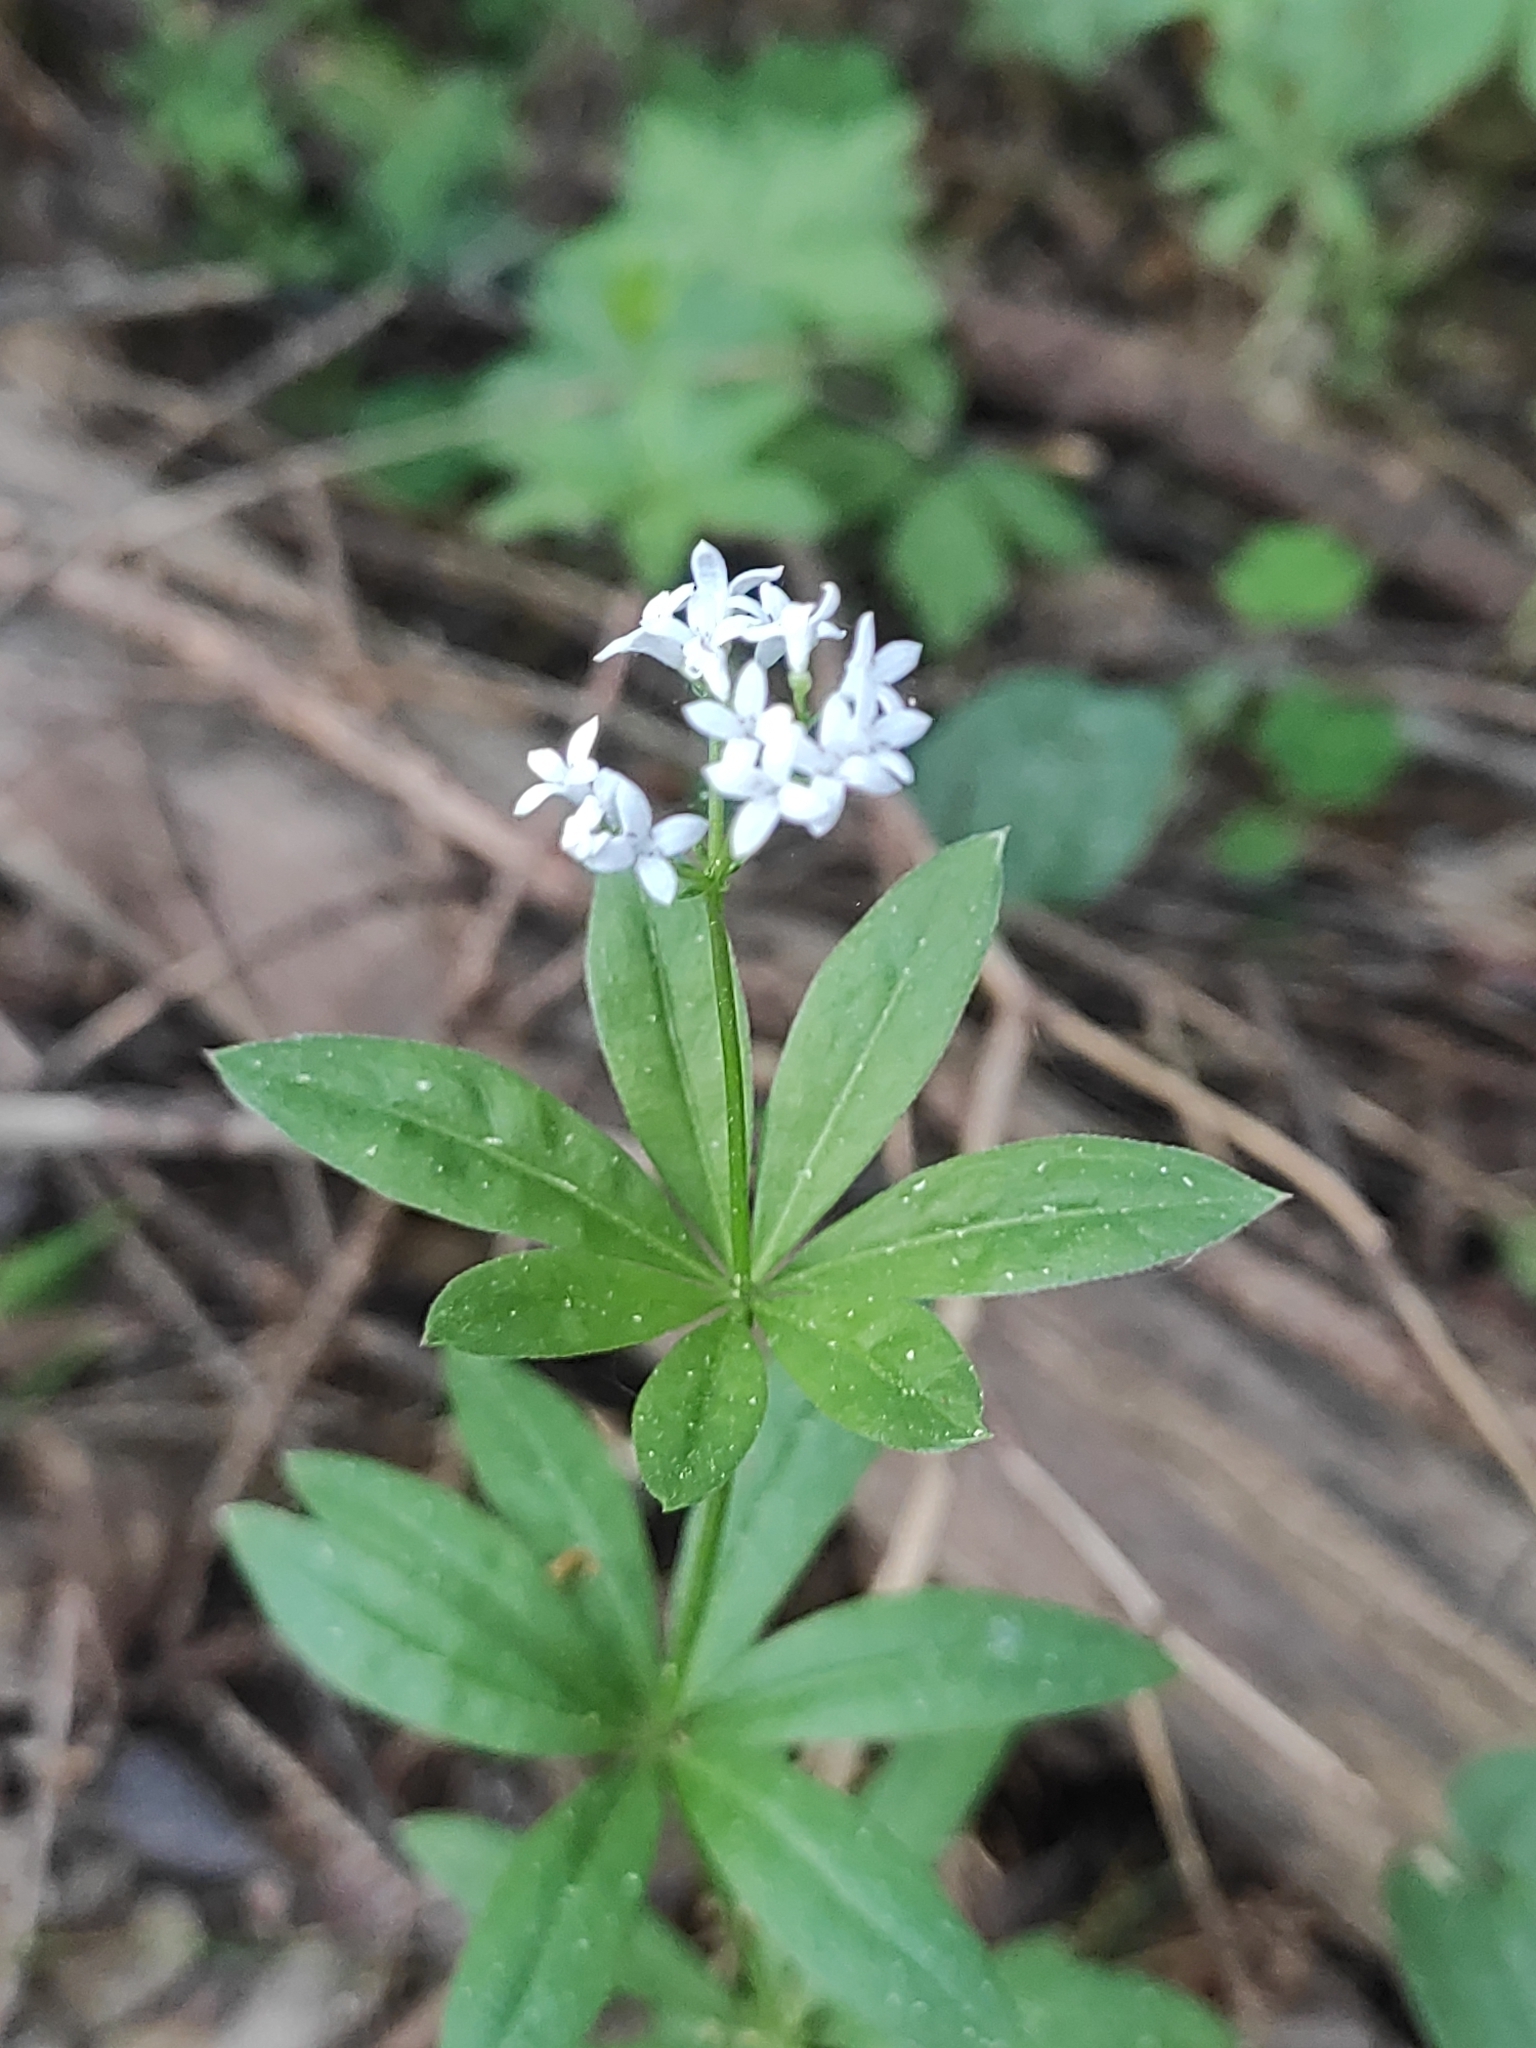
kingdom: Plantae
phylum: Tracheophyta
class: Magnoliopsida
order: Gentianales
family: Rubiaceae
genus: Galium
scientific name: Galium odoratum
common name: Sweet woodruff
